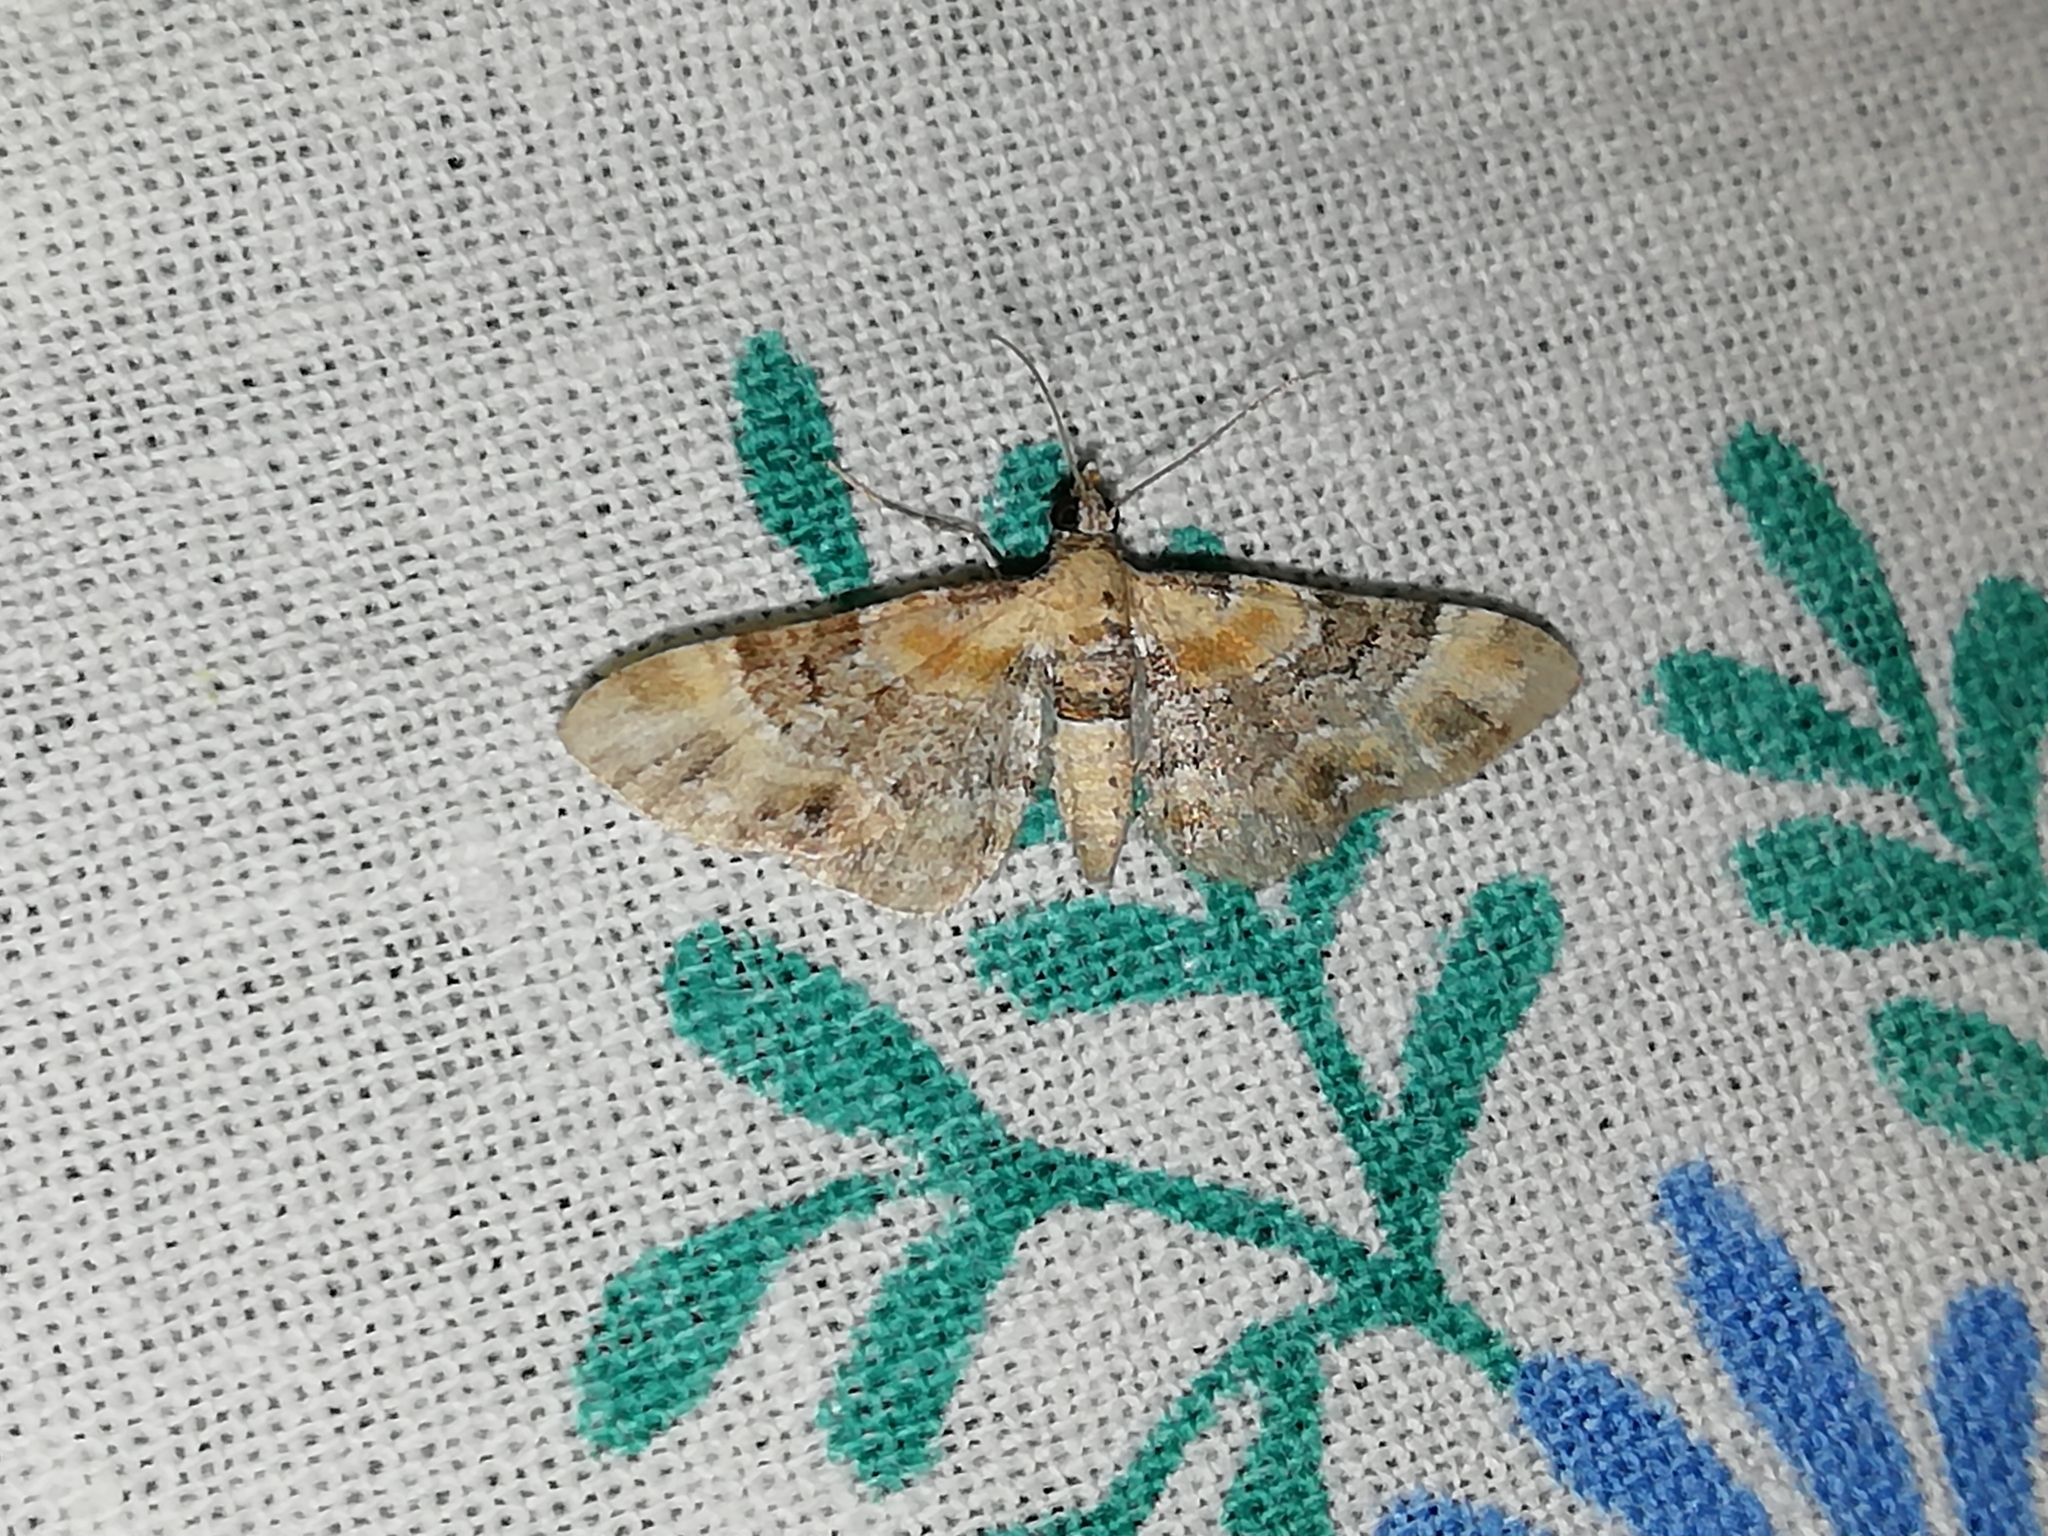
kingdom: Animalia
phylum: Arthropoda
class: Insecta
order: Lepidoptera
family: Geometridae
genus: Eupithecia
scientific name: Eupithecia linariata
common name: Toadflax pug
